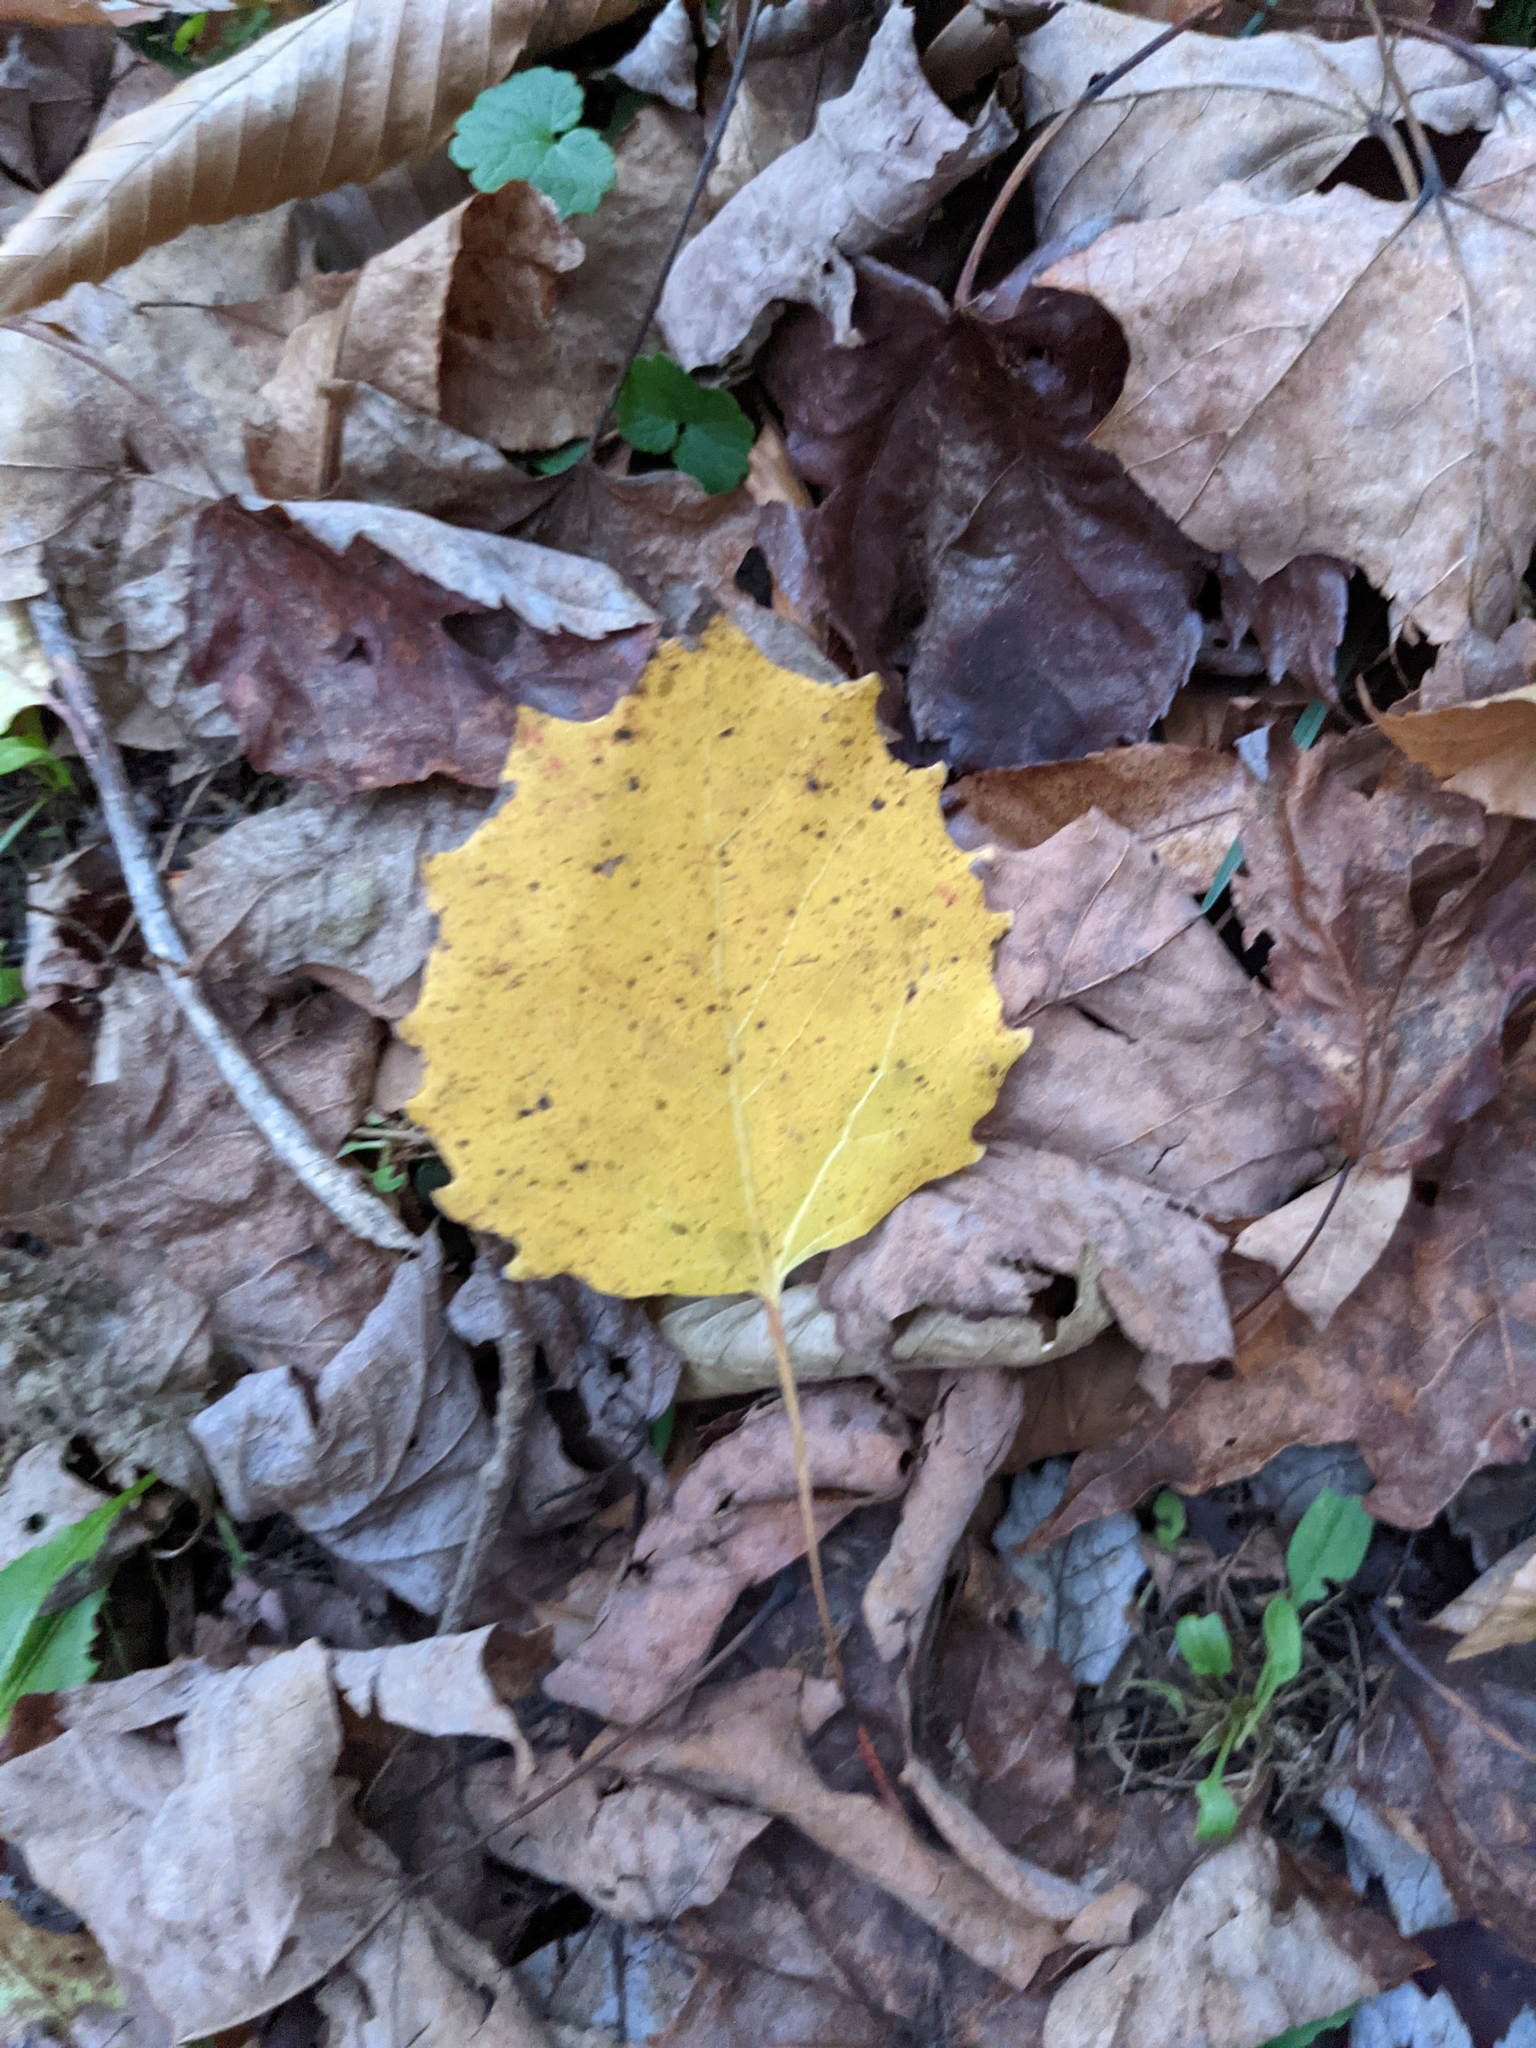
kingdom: Plantae
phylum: Tracheophyta
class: Magnoliopsida
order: Malpighiales
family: Salicaceae
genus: Populus
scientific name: Populus grandidentata
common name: Bigtooth aspen
